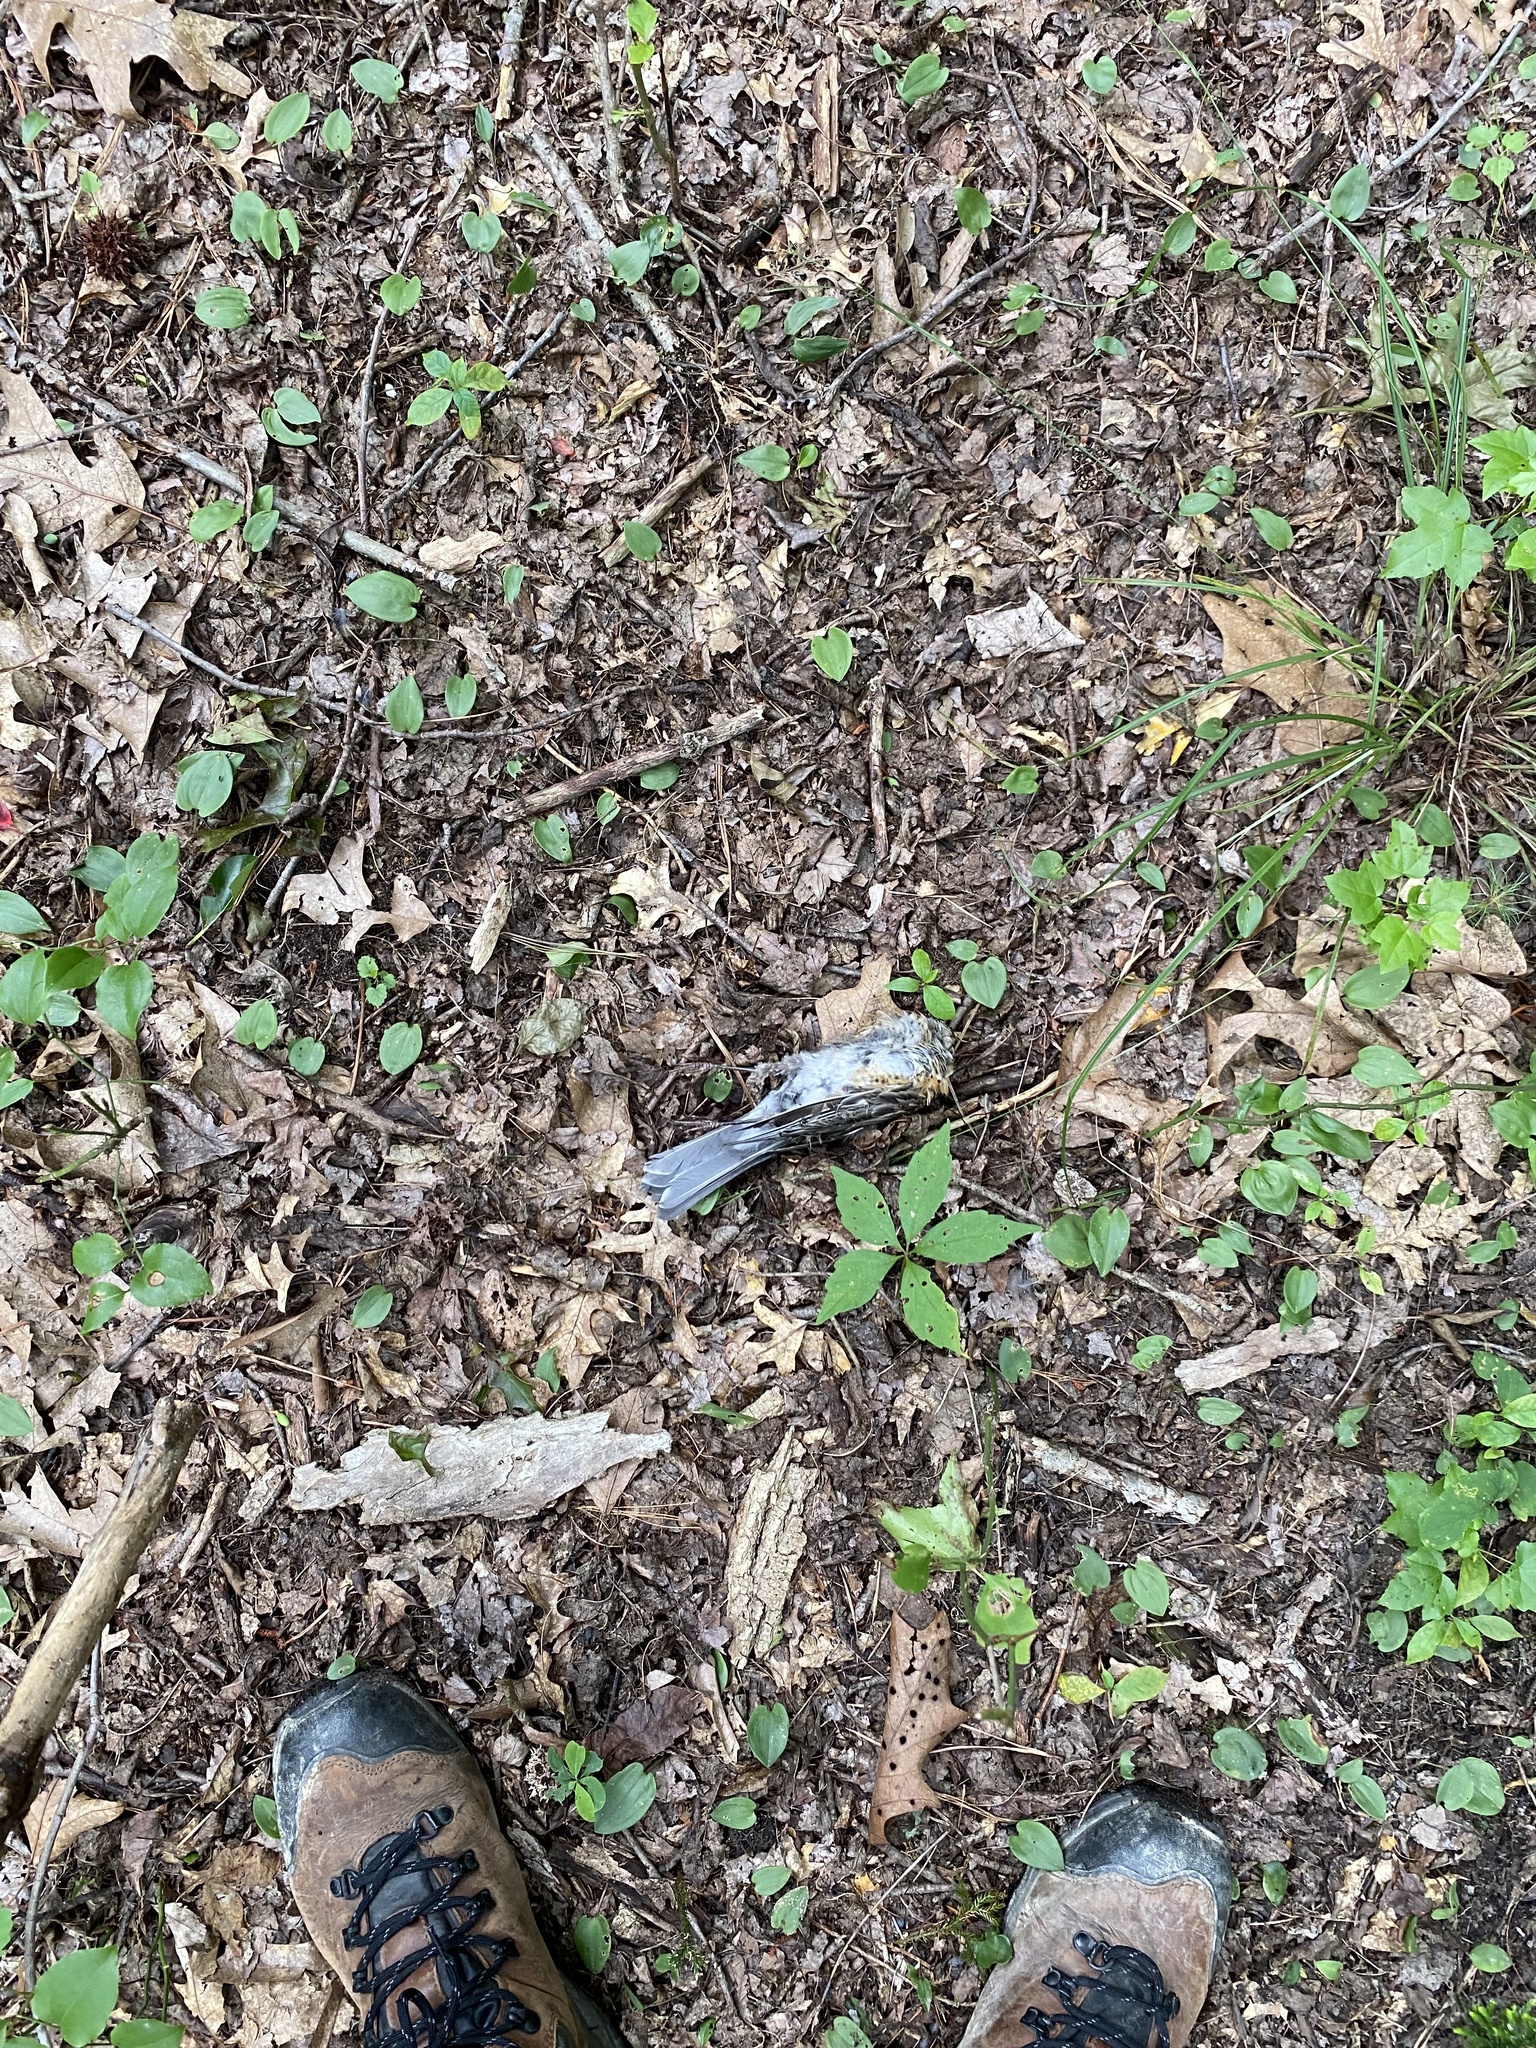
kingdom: Animalia
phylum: Chordata
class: Aves
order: Passeriformes
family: Turdidae
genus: Turdus
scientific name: Turdus migratorius
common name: American robin
